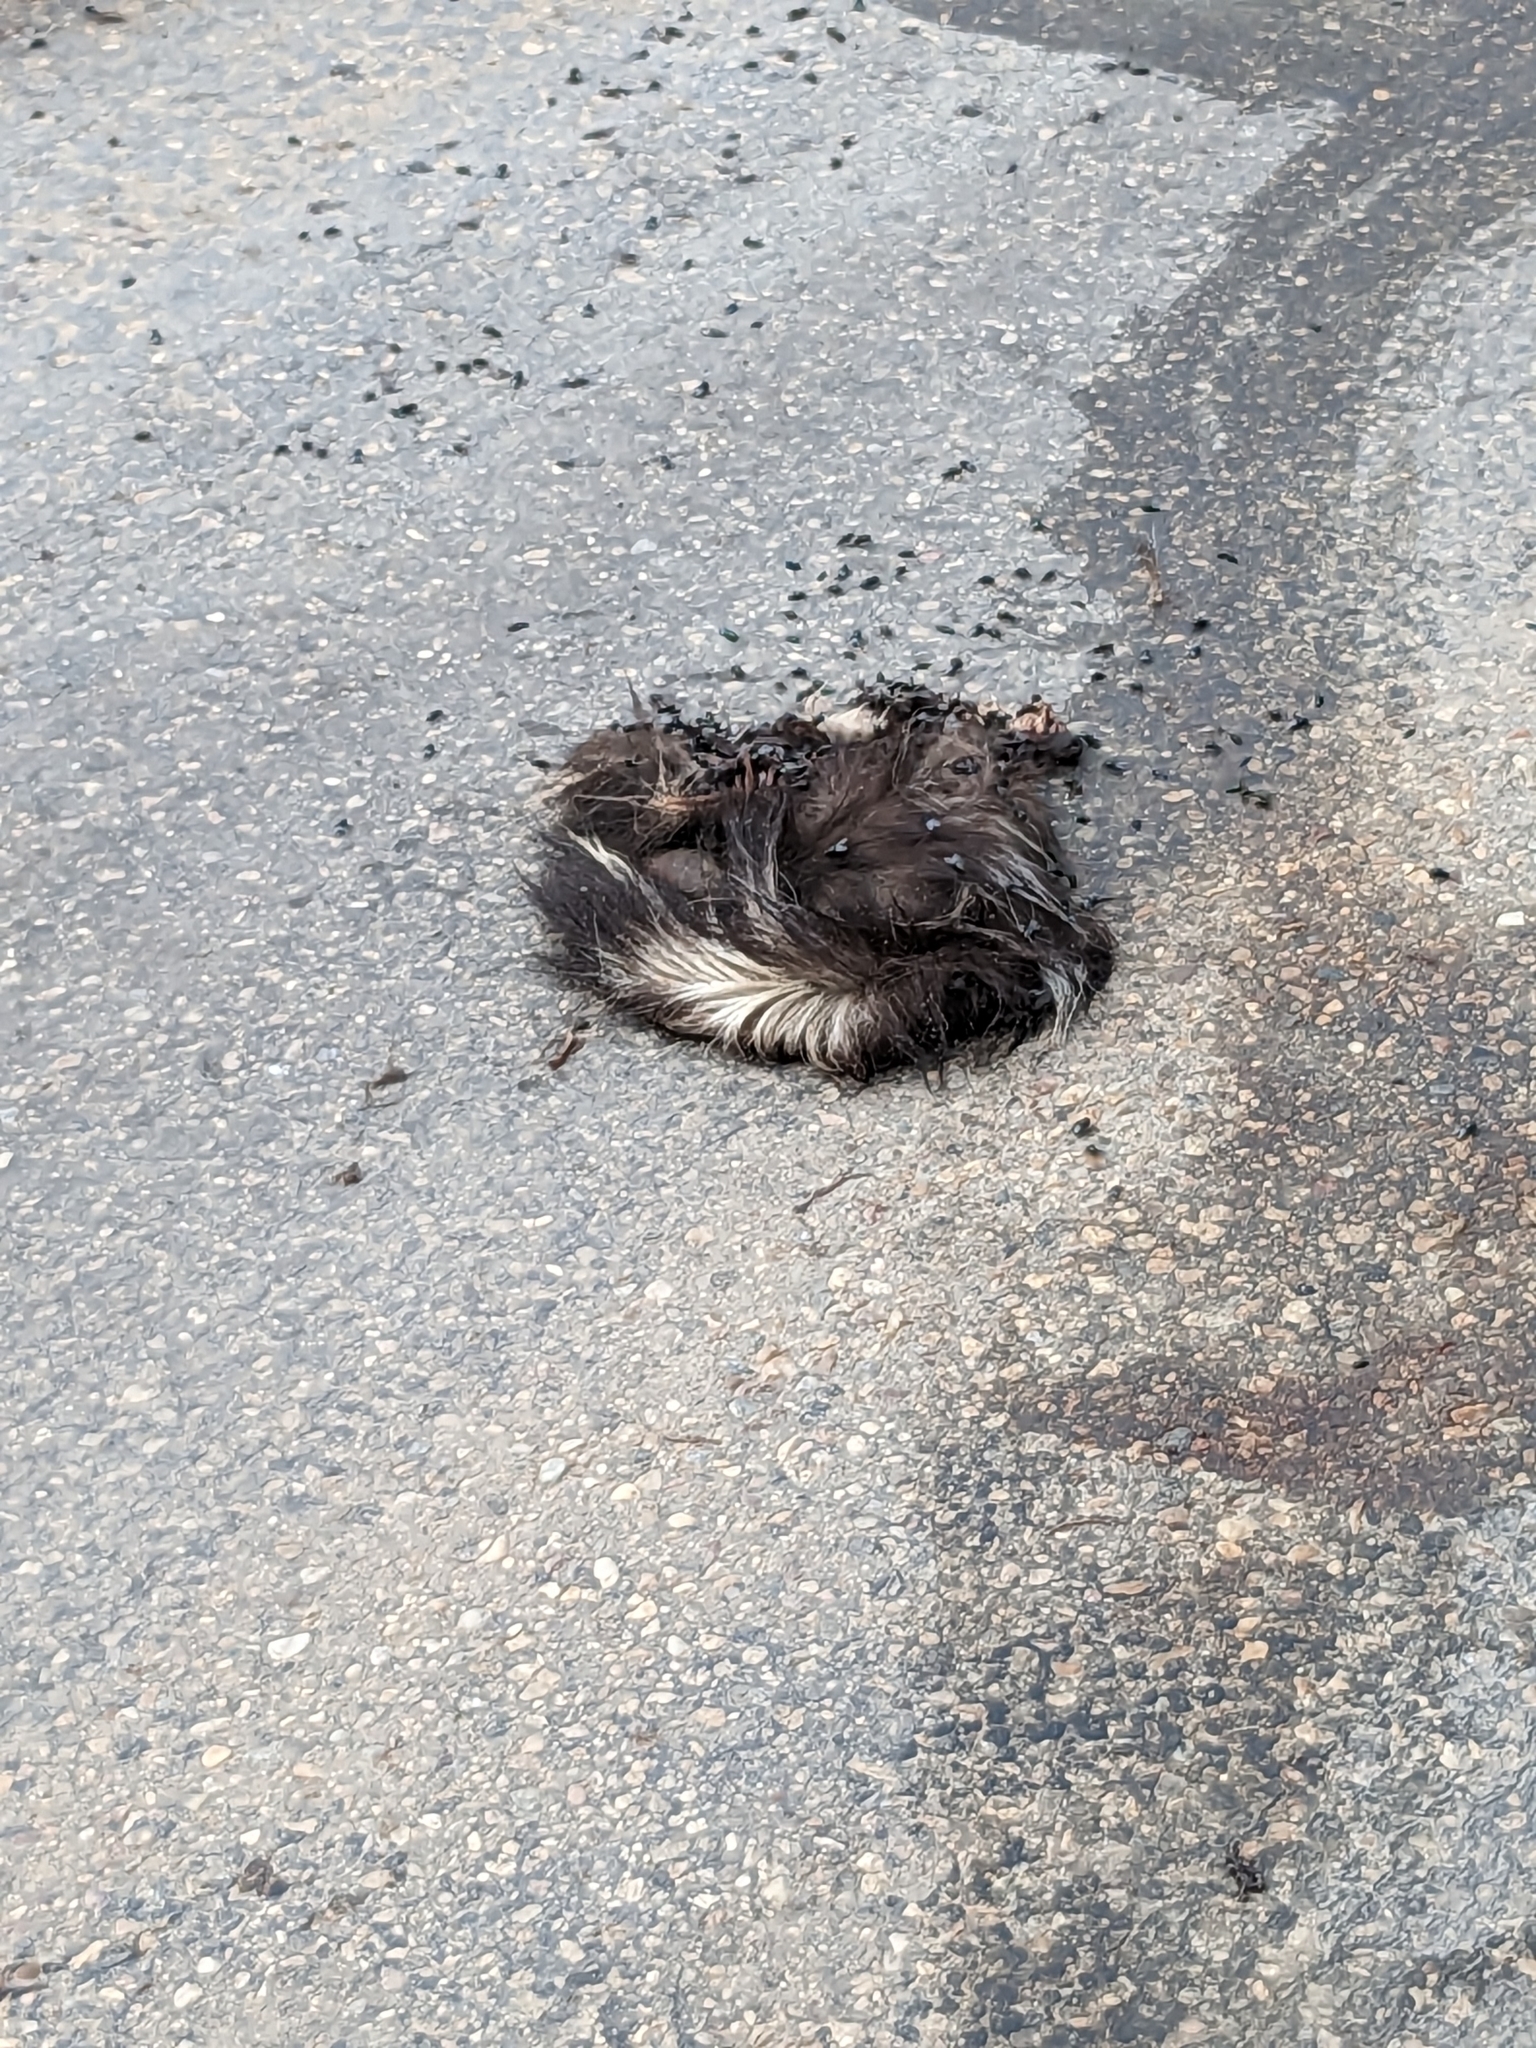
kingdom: Animalia
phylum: Chordata
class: Mammalia
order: Carnivora
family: Mephitidae
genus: Mephitis
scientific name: Mephitis mephitis
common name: Striped skunk
